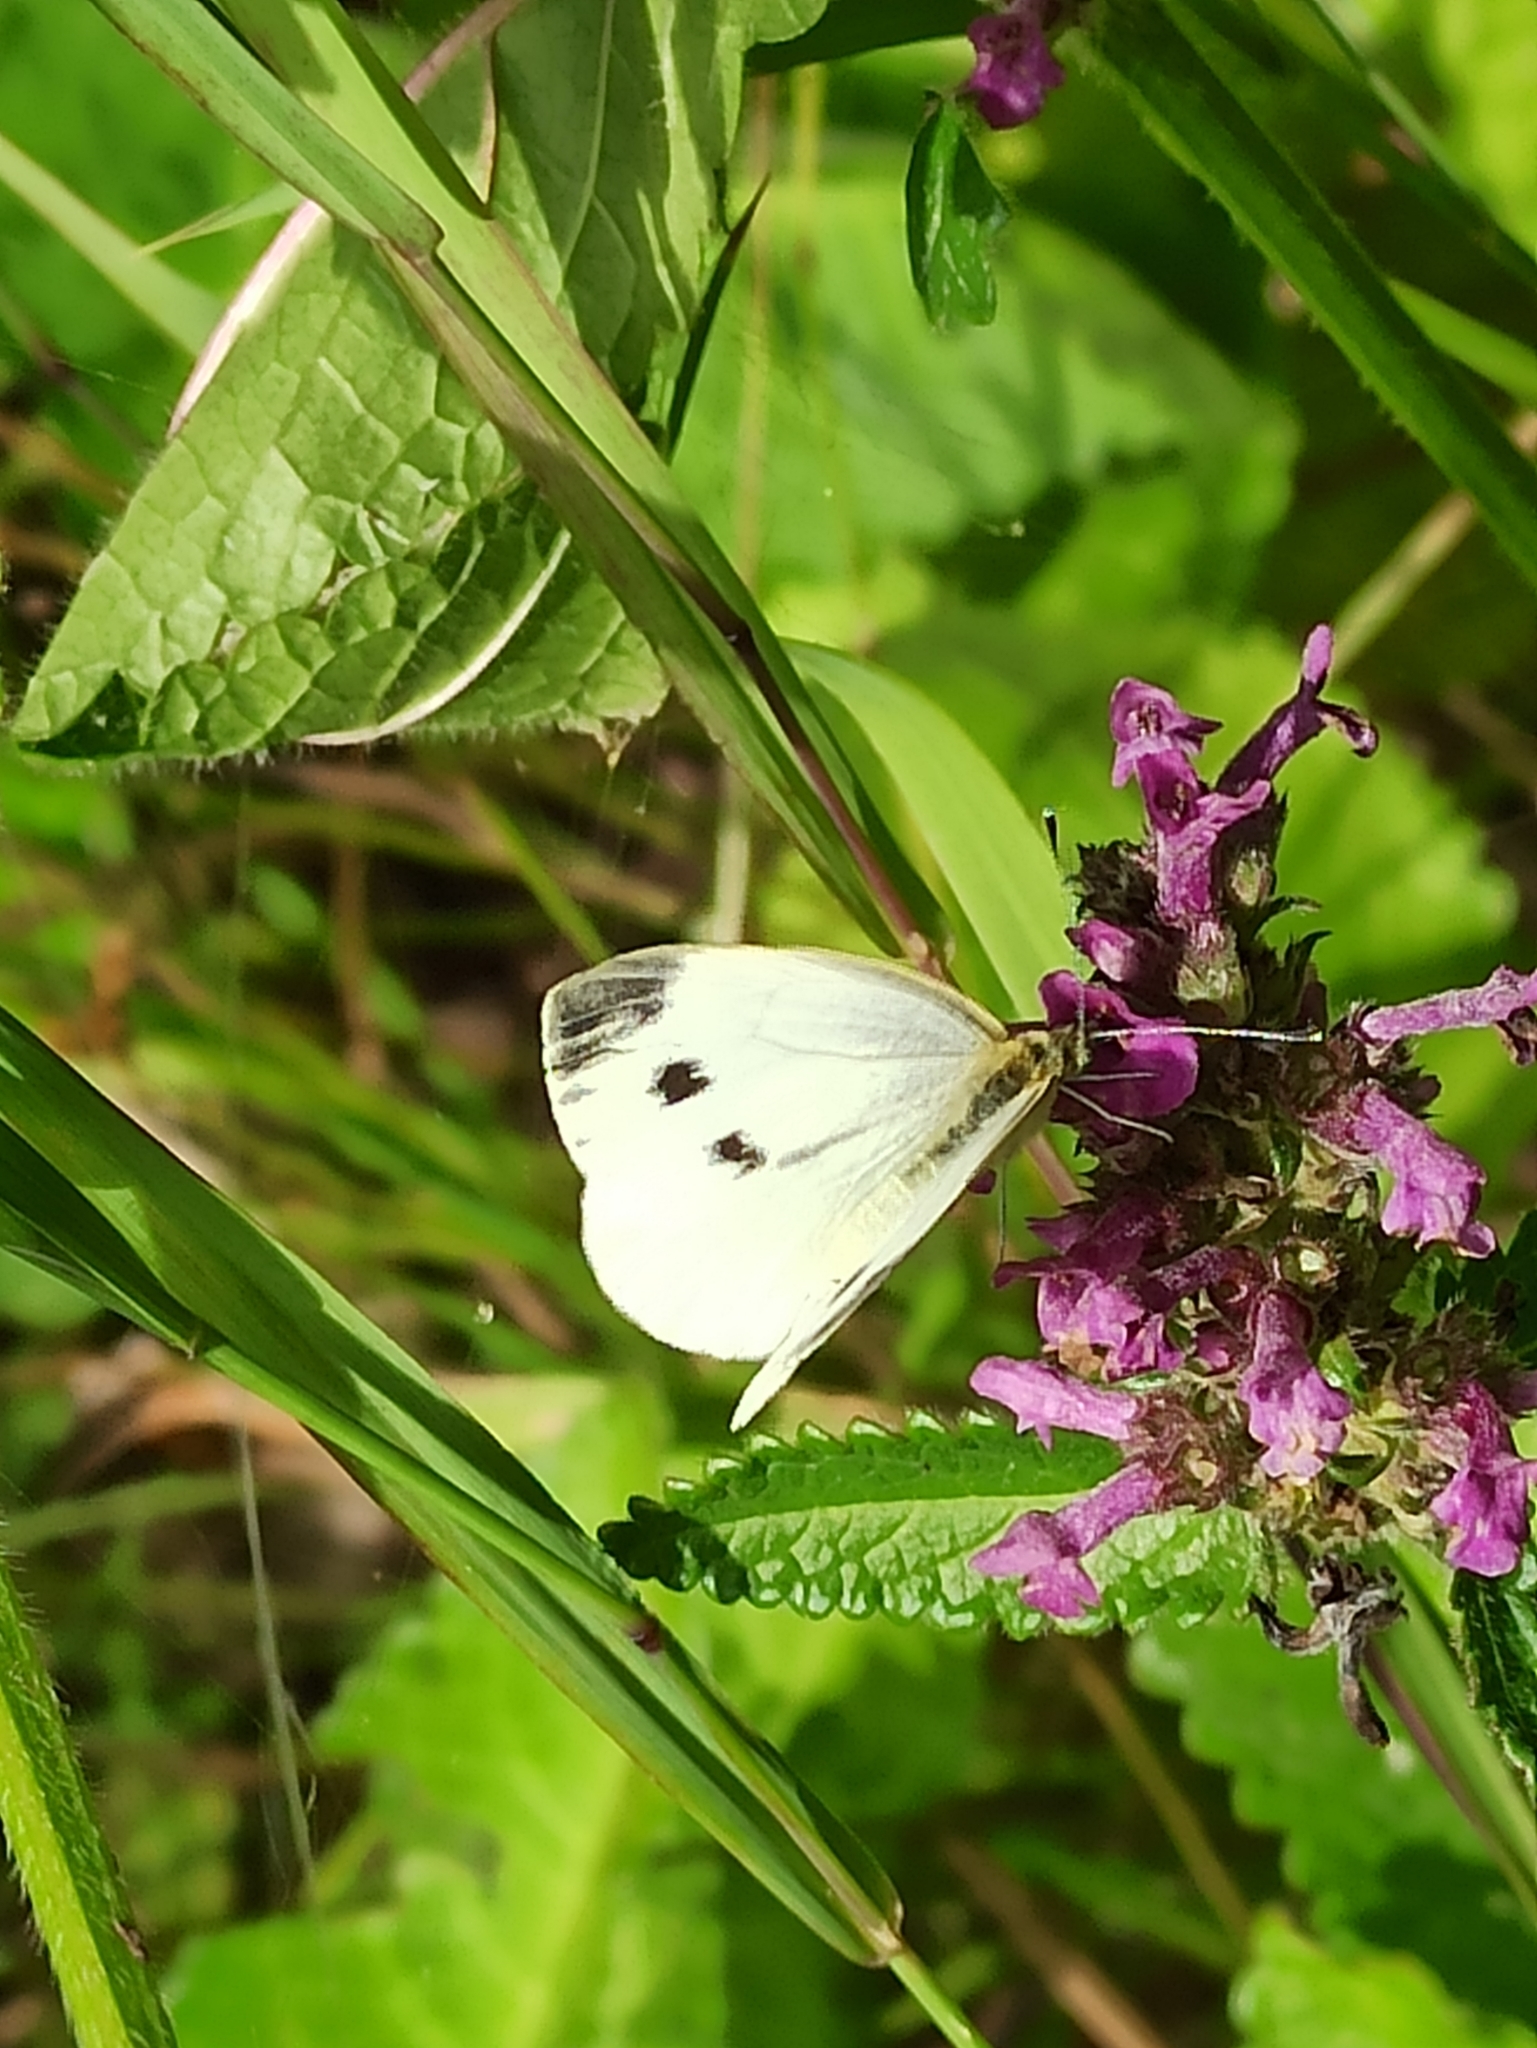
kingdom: Animalia
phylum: Arthropoda
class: Insecta
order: Lepidoptera
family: Pieridae
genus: Pieris
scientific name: Pieris napi
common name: Green-veined white
